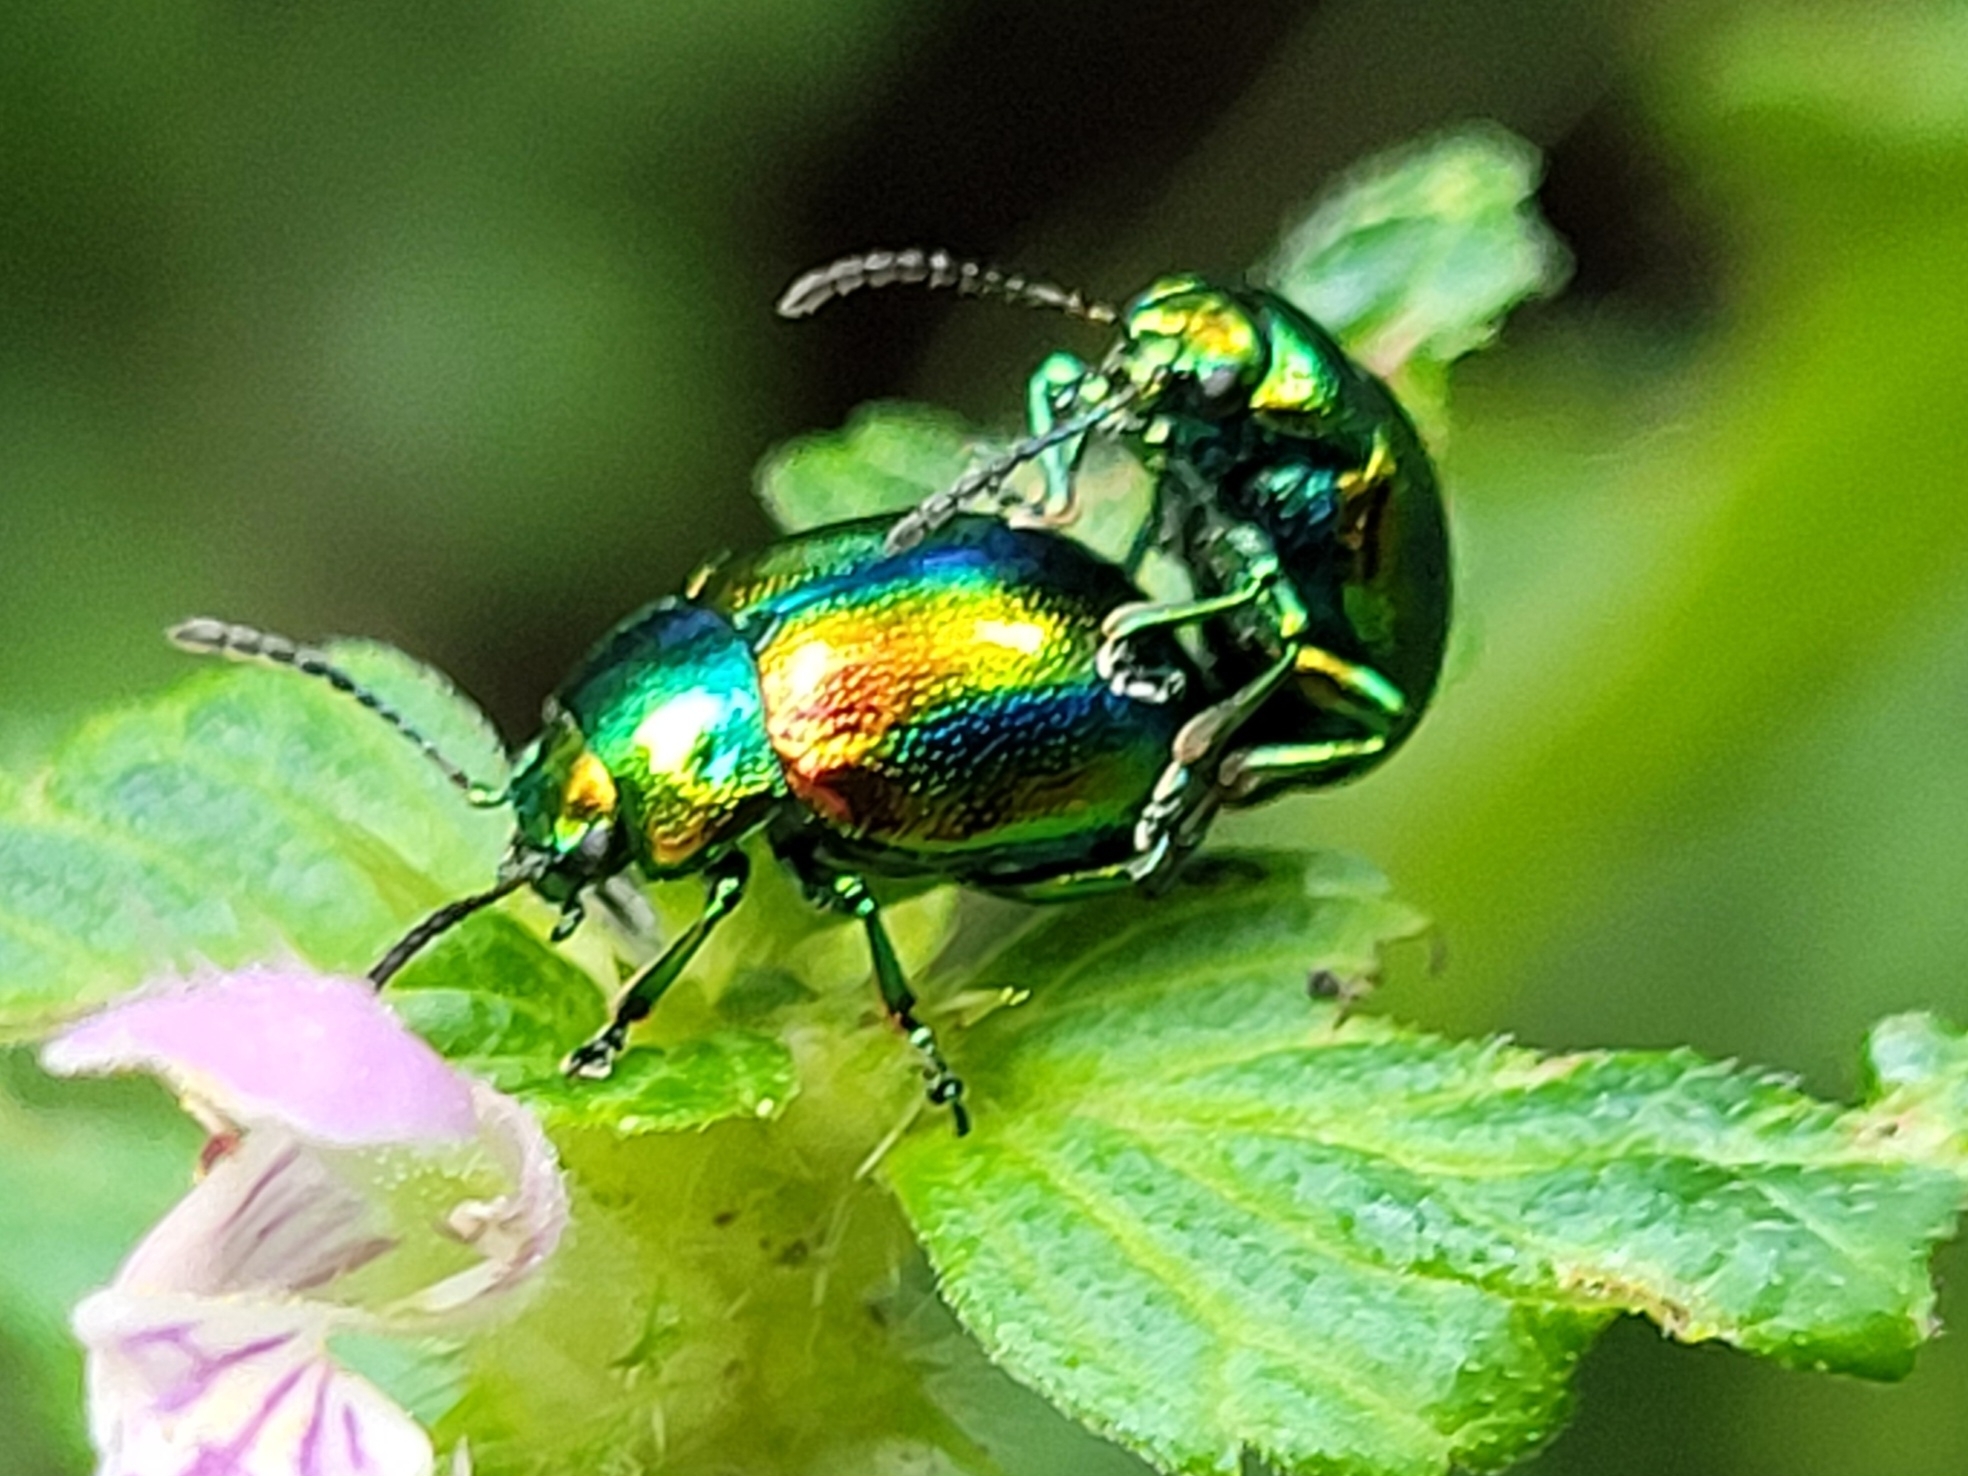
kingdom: Animalia
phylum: Arthropoda
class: Insecta
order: Coleoptera
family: Chrysomelidae
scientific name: Chrysomelidae
